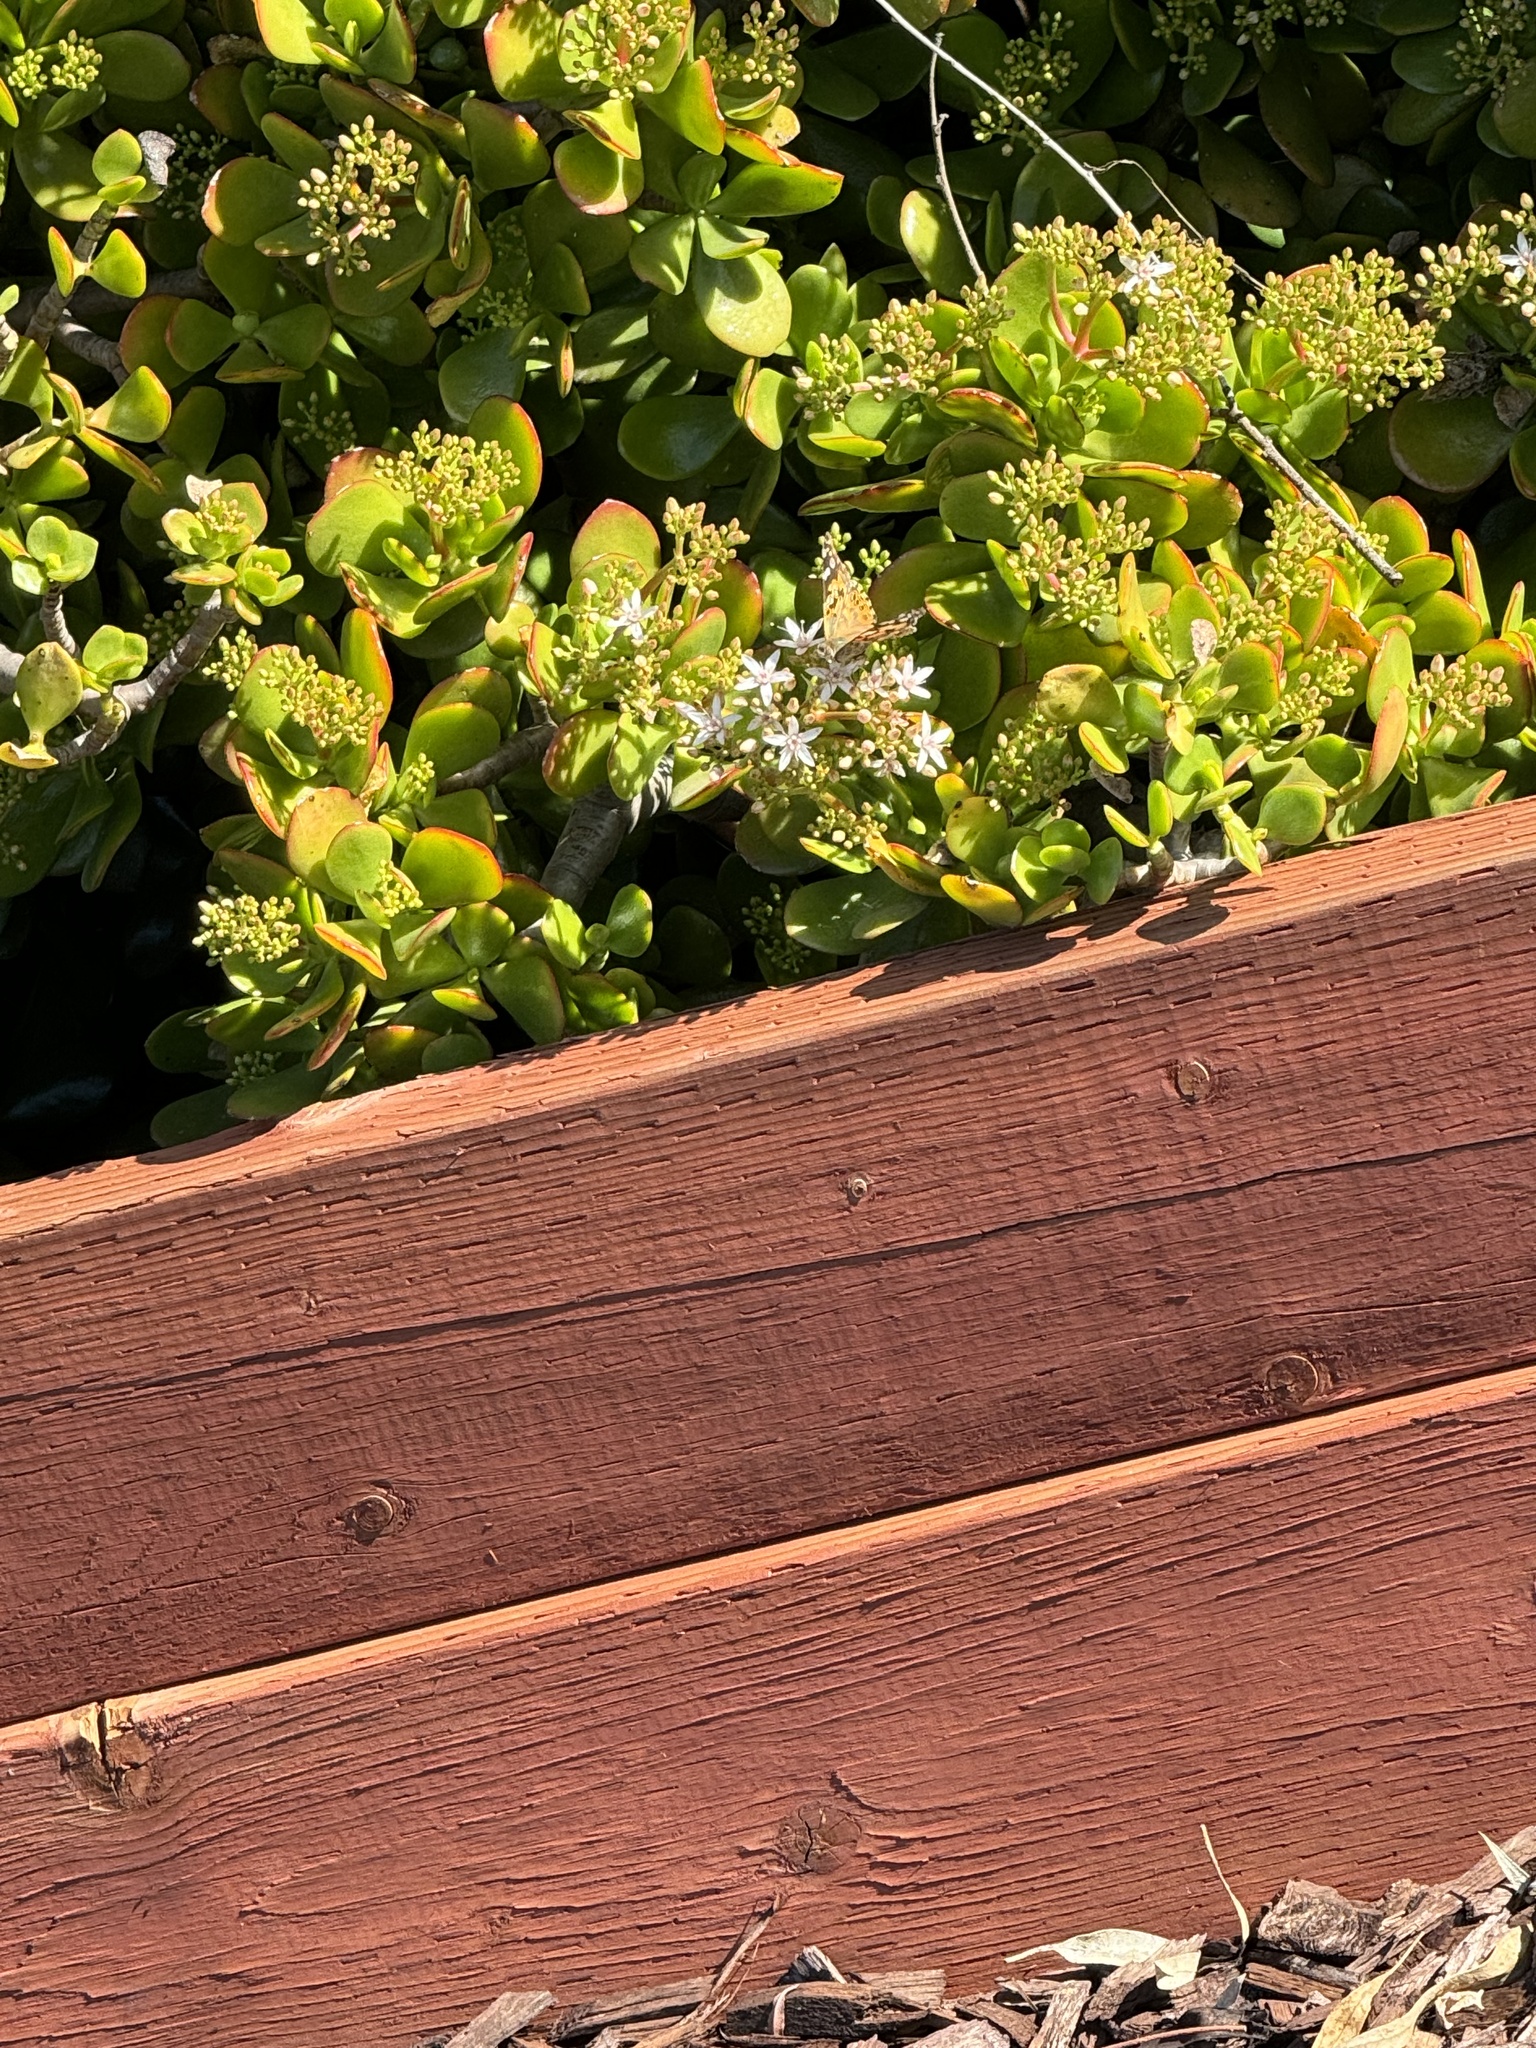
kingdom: Animalia
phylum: Arthropoda
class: Insecta
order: Lepidoptera
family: Nymphalidae
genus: Vanessa
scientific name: Vanessa cardui
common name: Painted lady
